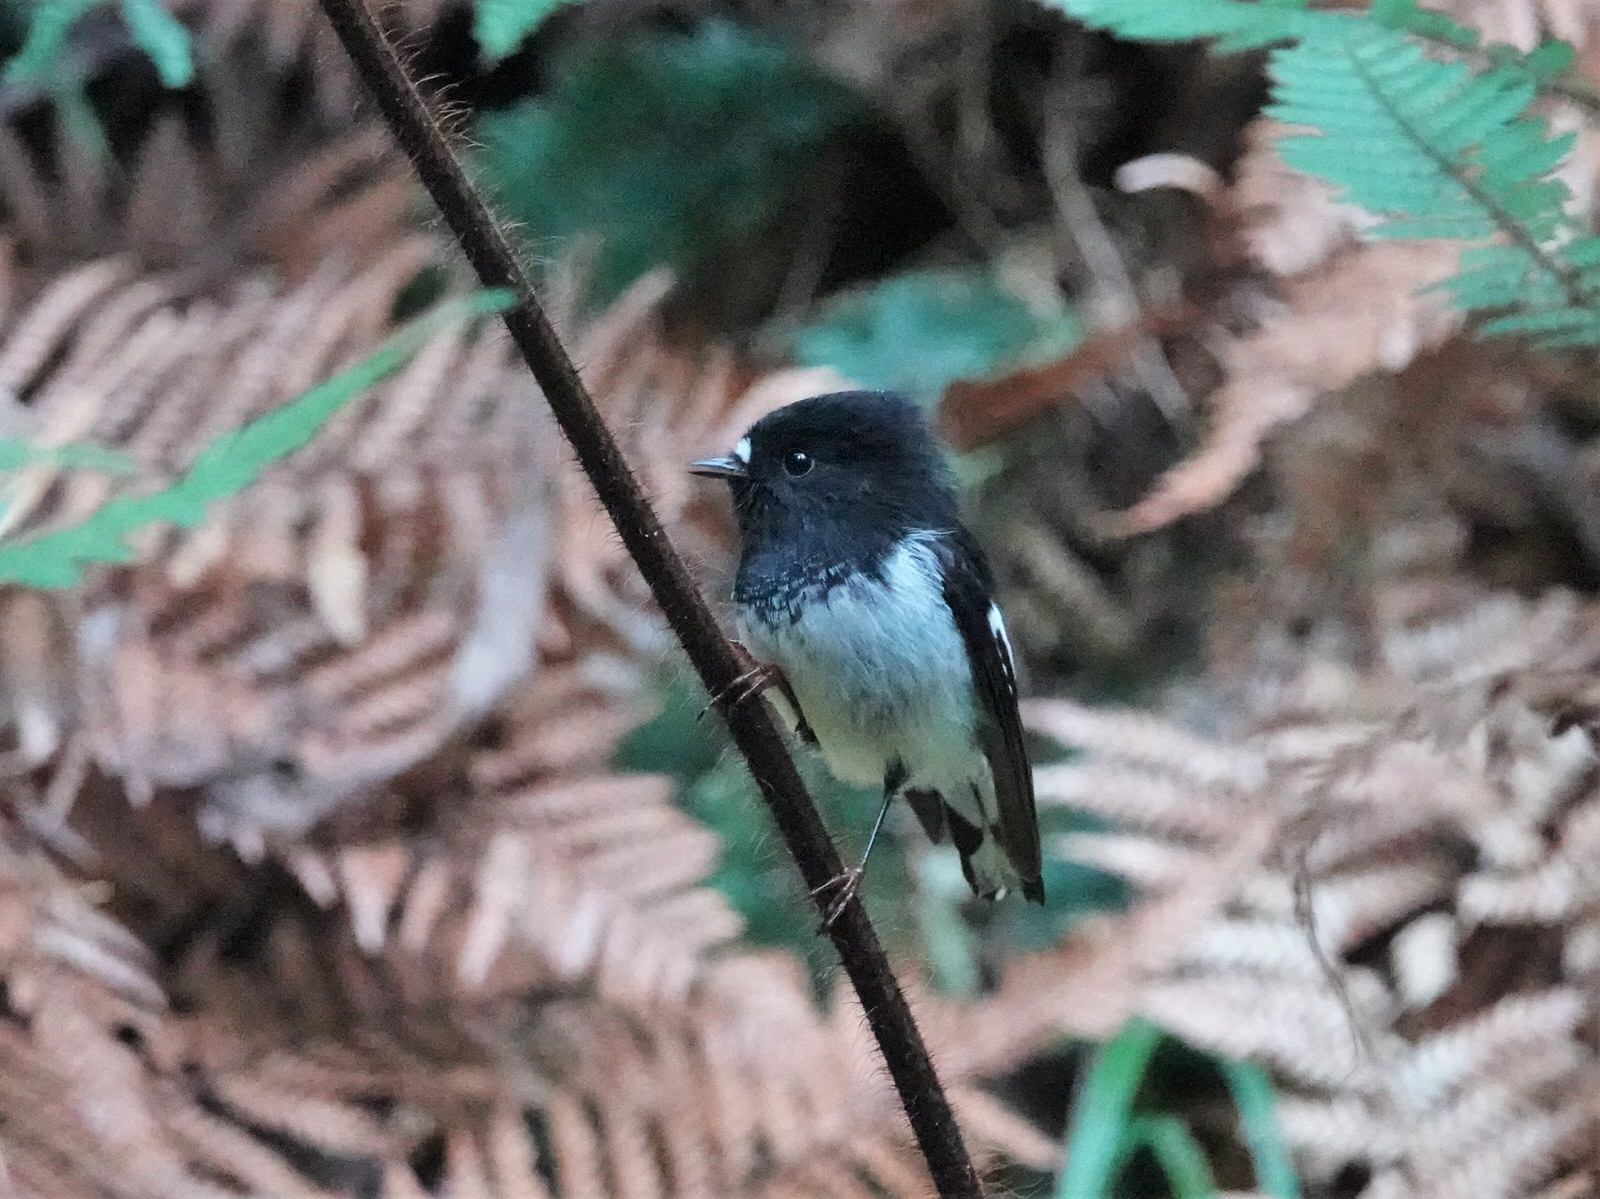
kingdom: Animalia
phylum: Chordata
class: Aves
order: Passeriformes
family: Petroicidae
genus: Petroica
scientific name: Petroica macrocephala
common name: Tomtit
